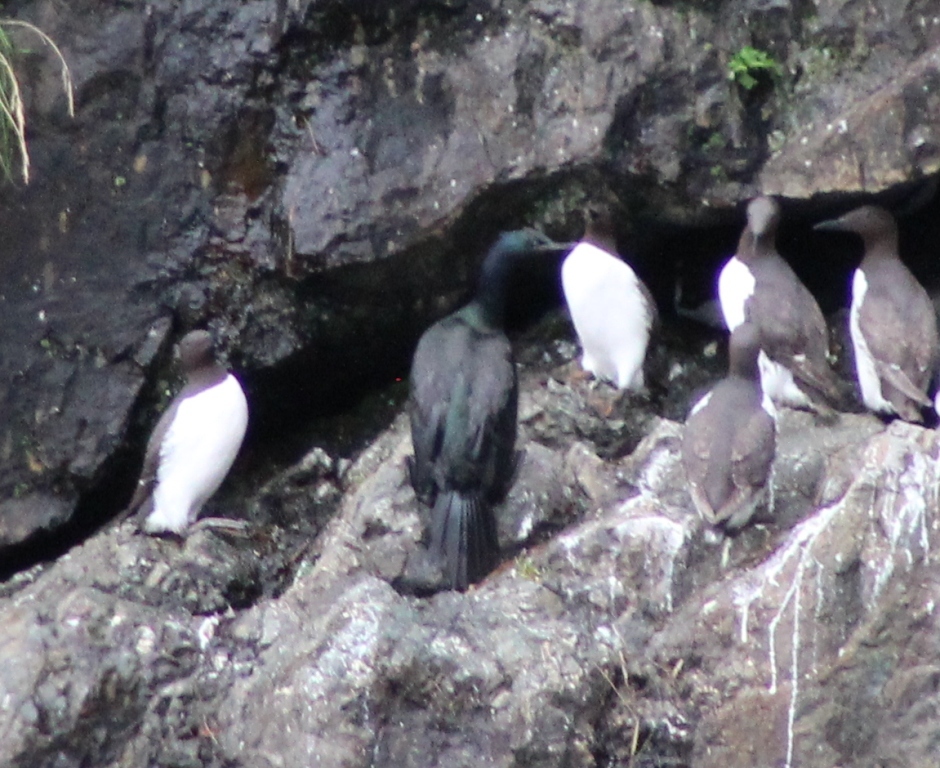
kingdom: Animalia
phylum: Chordata
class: Aves
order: Suliformes
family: Phalacrocoracidae
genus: Phalacrocorax
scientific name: Phalacrocorax pelagicus
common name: Pelagic cormorant
